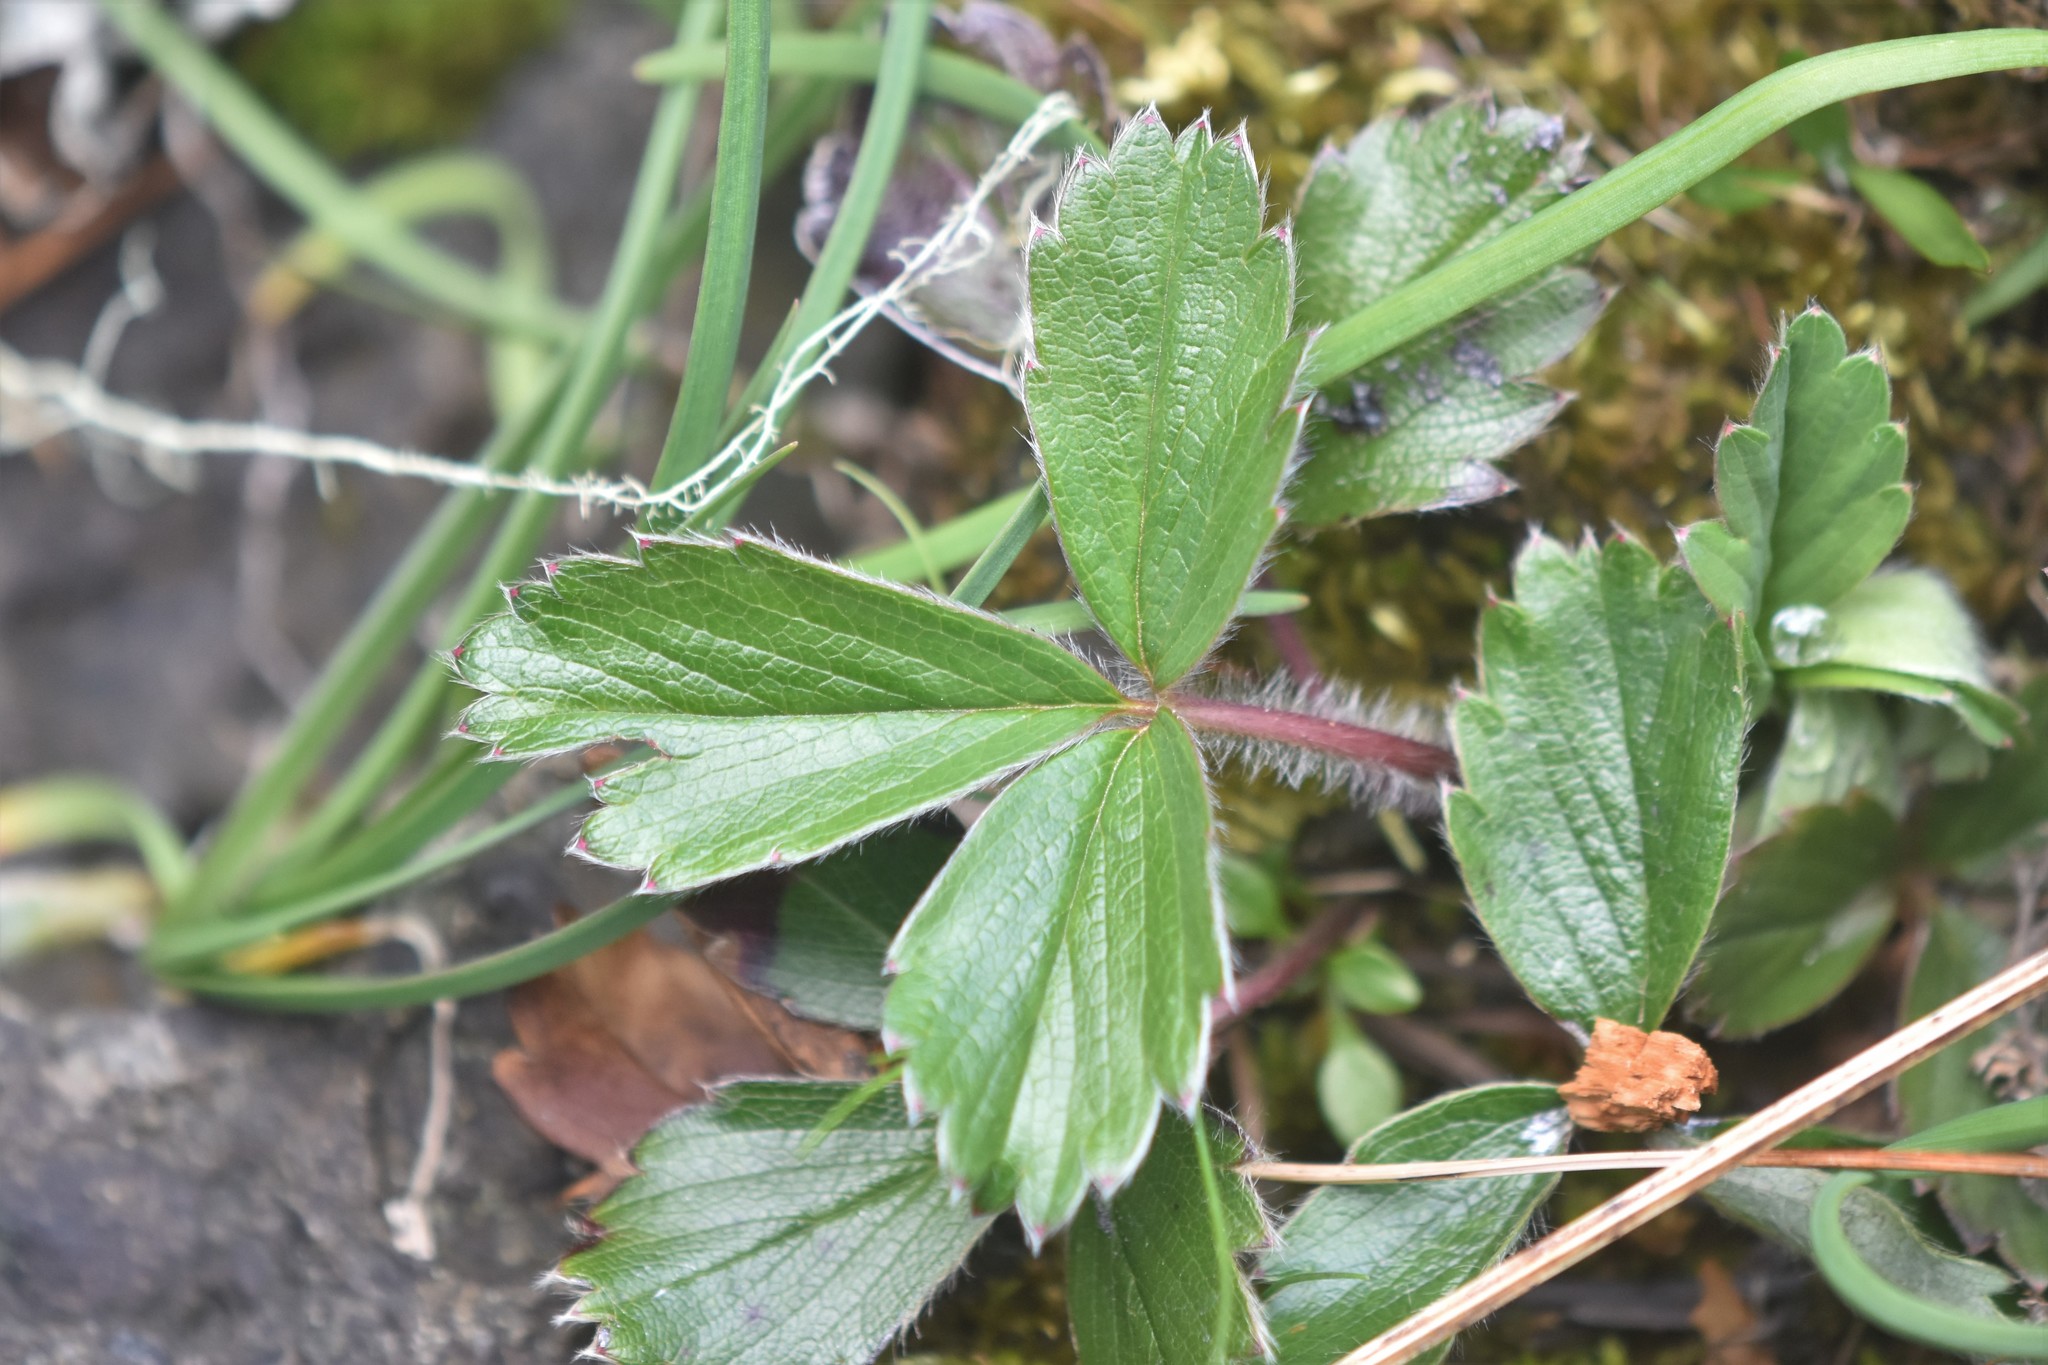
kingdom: Plantae
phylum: Tracheophyta
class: Magnoliopsida
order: Rosales
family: Rosaceae
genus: Fragaria
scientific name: Fragaria virginiana
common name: Thickleaved wild strawberry
